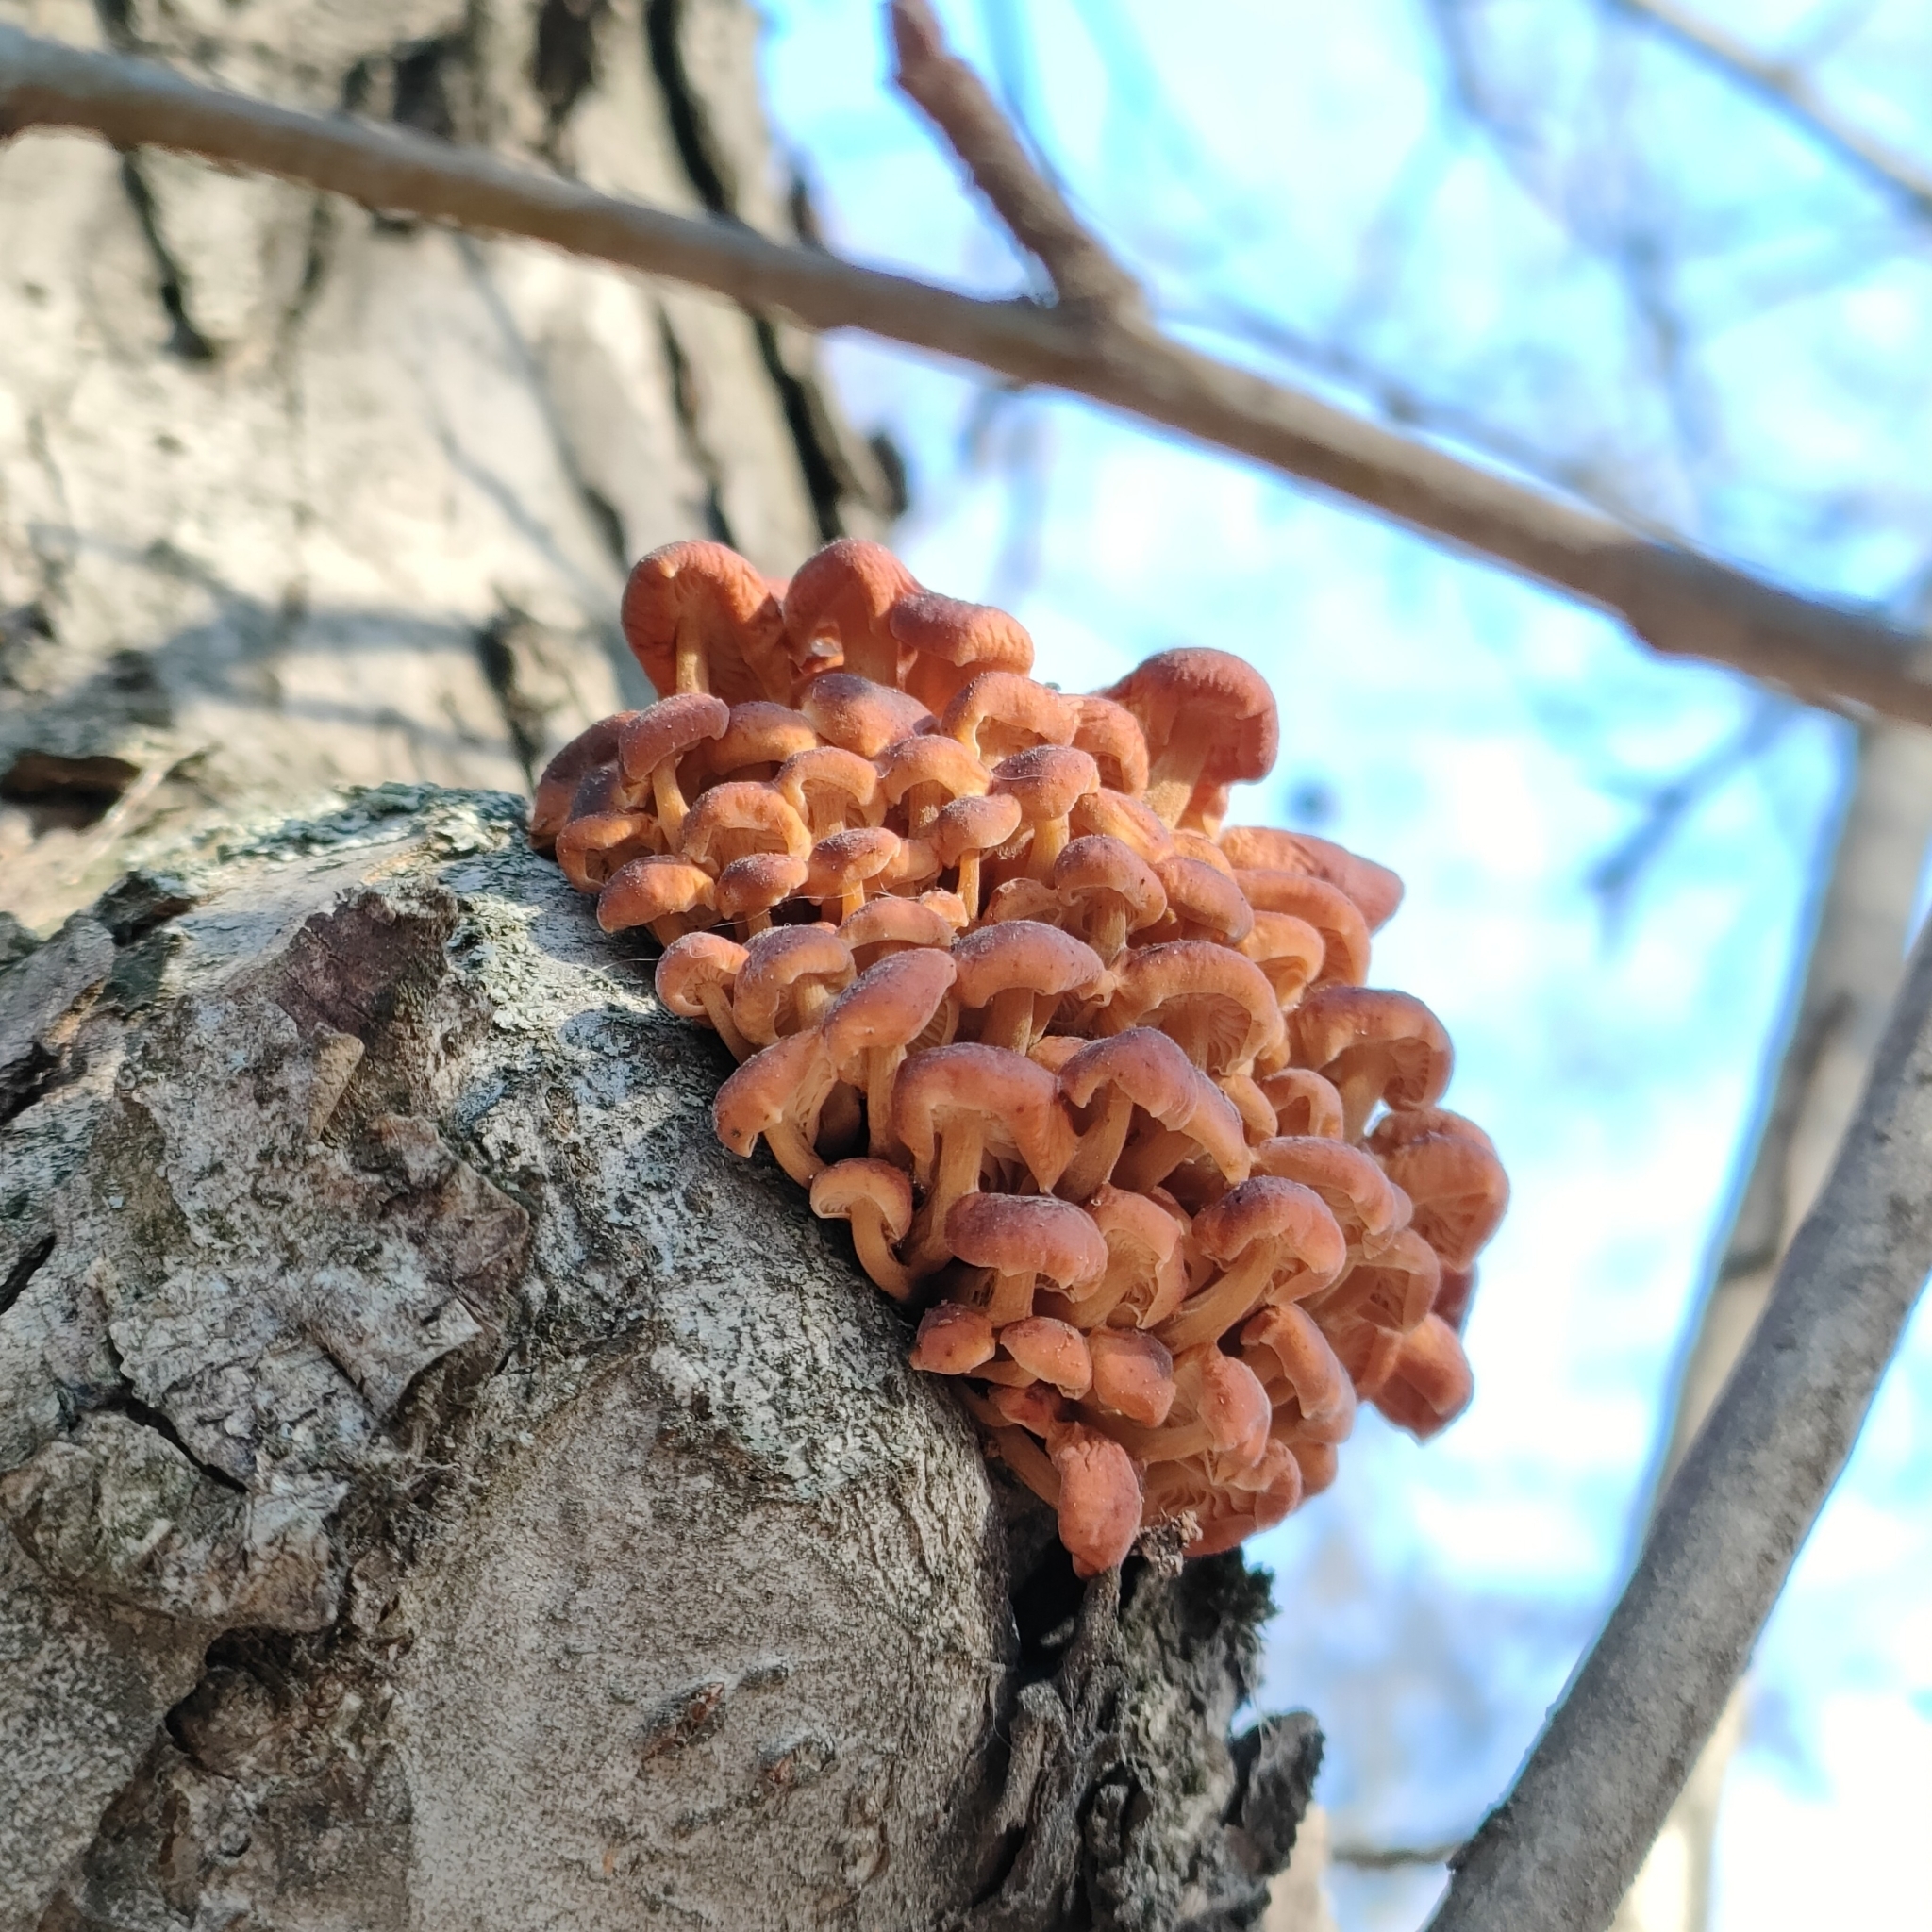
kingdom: Fungi
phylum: Basidiomycota
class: Agaricomycetes
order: Agaricales
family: Physalacriaceae
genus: Flammulina
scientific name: Flammulina
